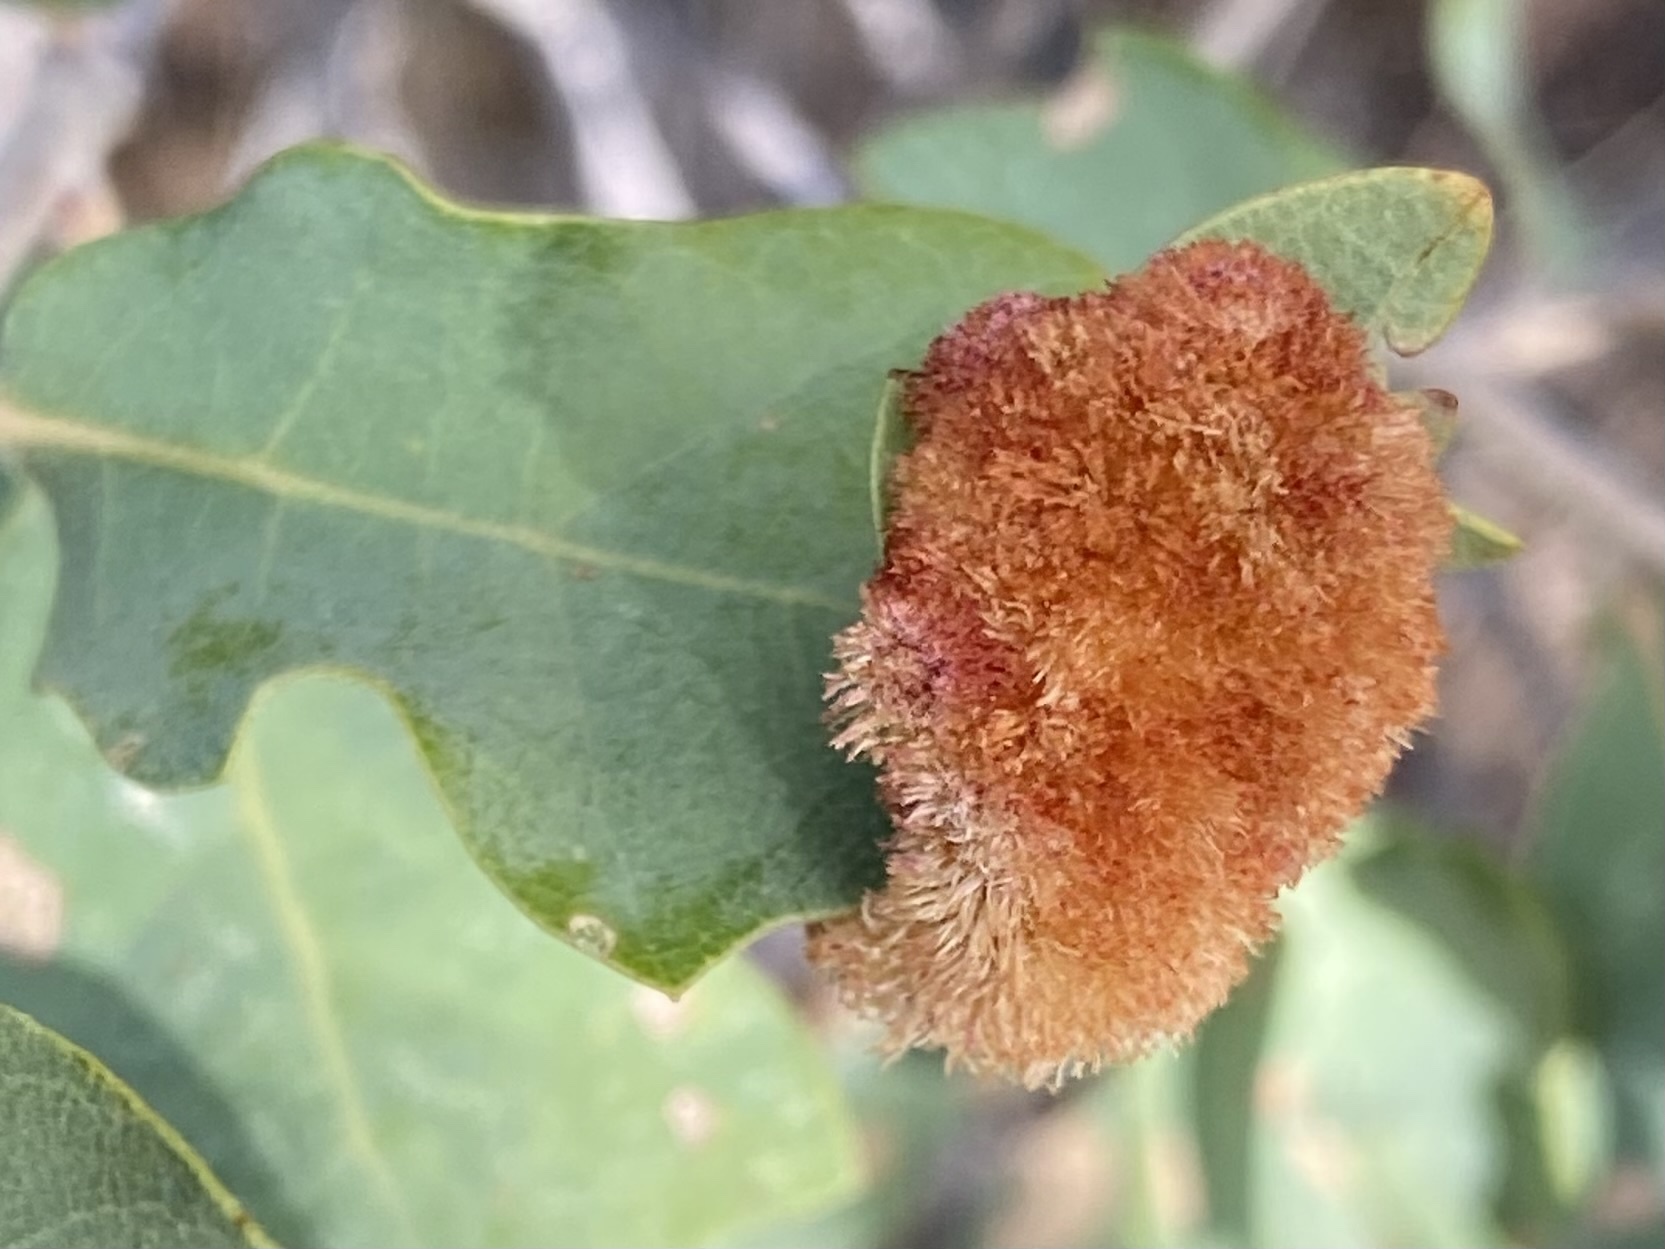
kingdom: Animalia
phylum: Arthropoda
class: Insecta
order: Hymenoptera
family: Cynipidae
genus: Andricus
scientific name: Andricus
